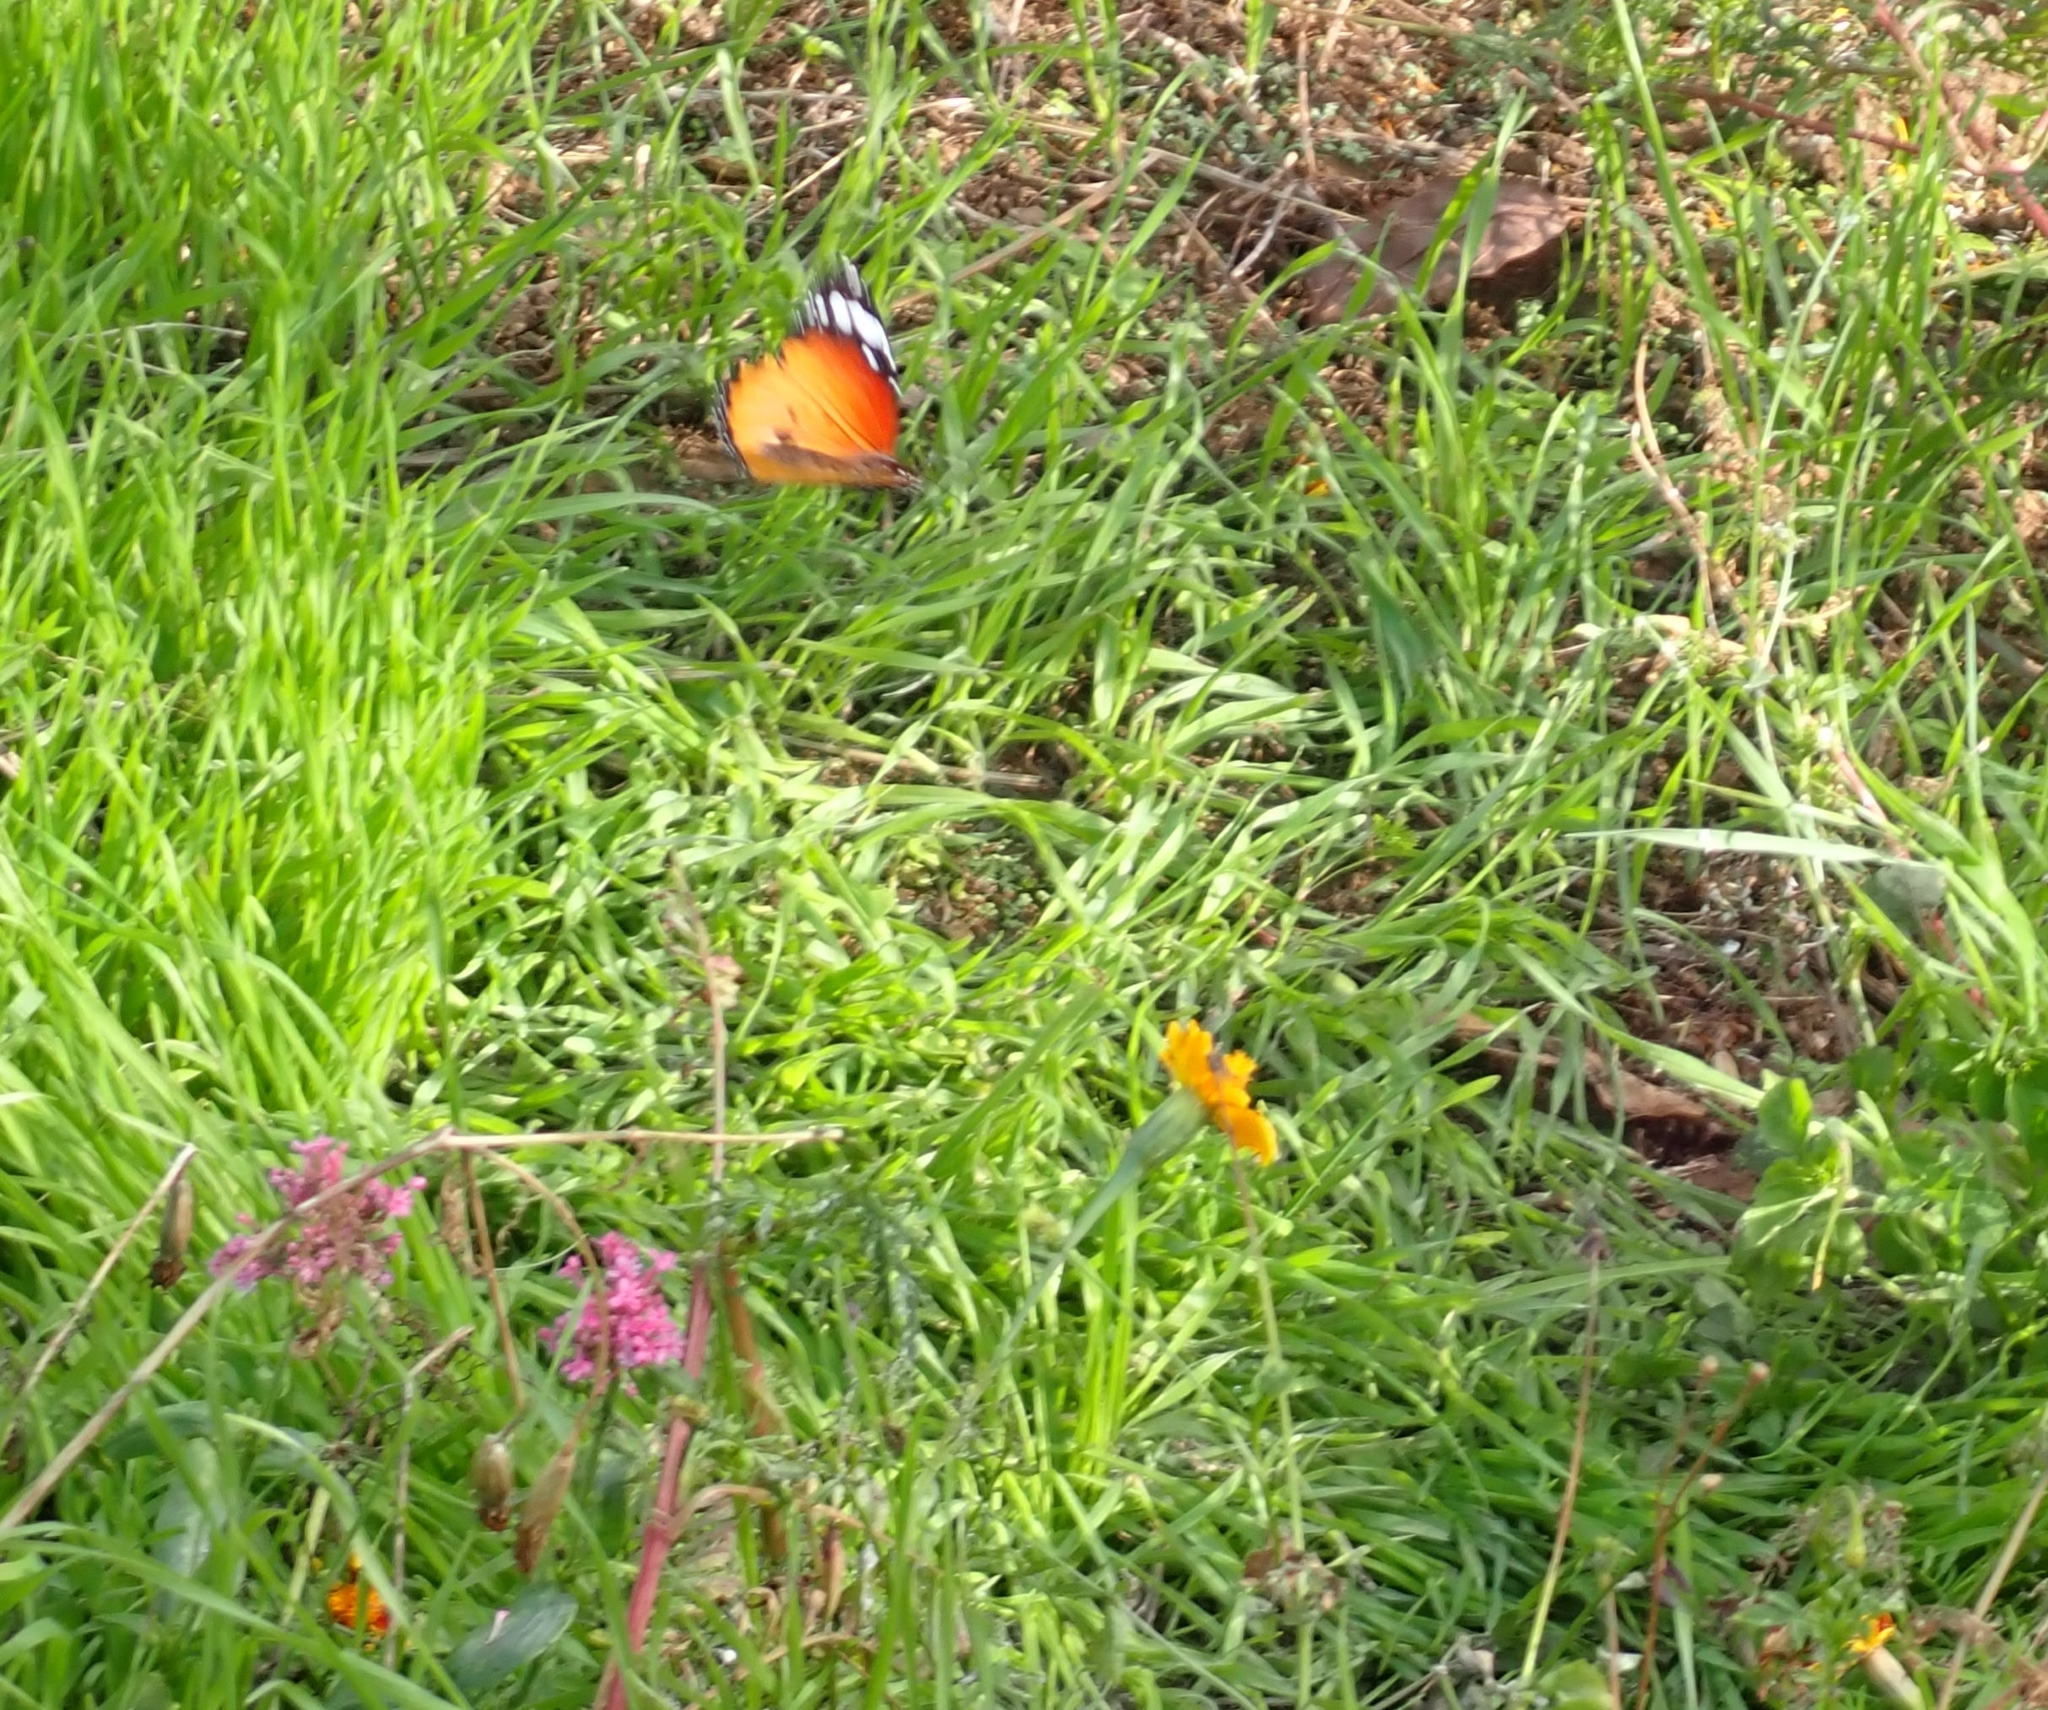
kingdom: Animalia
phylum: Arthropoda
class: Insecta
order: Lepidoptera
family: Nymphalidae
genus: Danaus
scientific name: Danaus chrysippus
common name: Plain tiger
